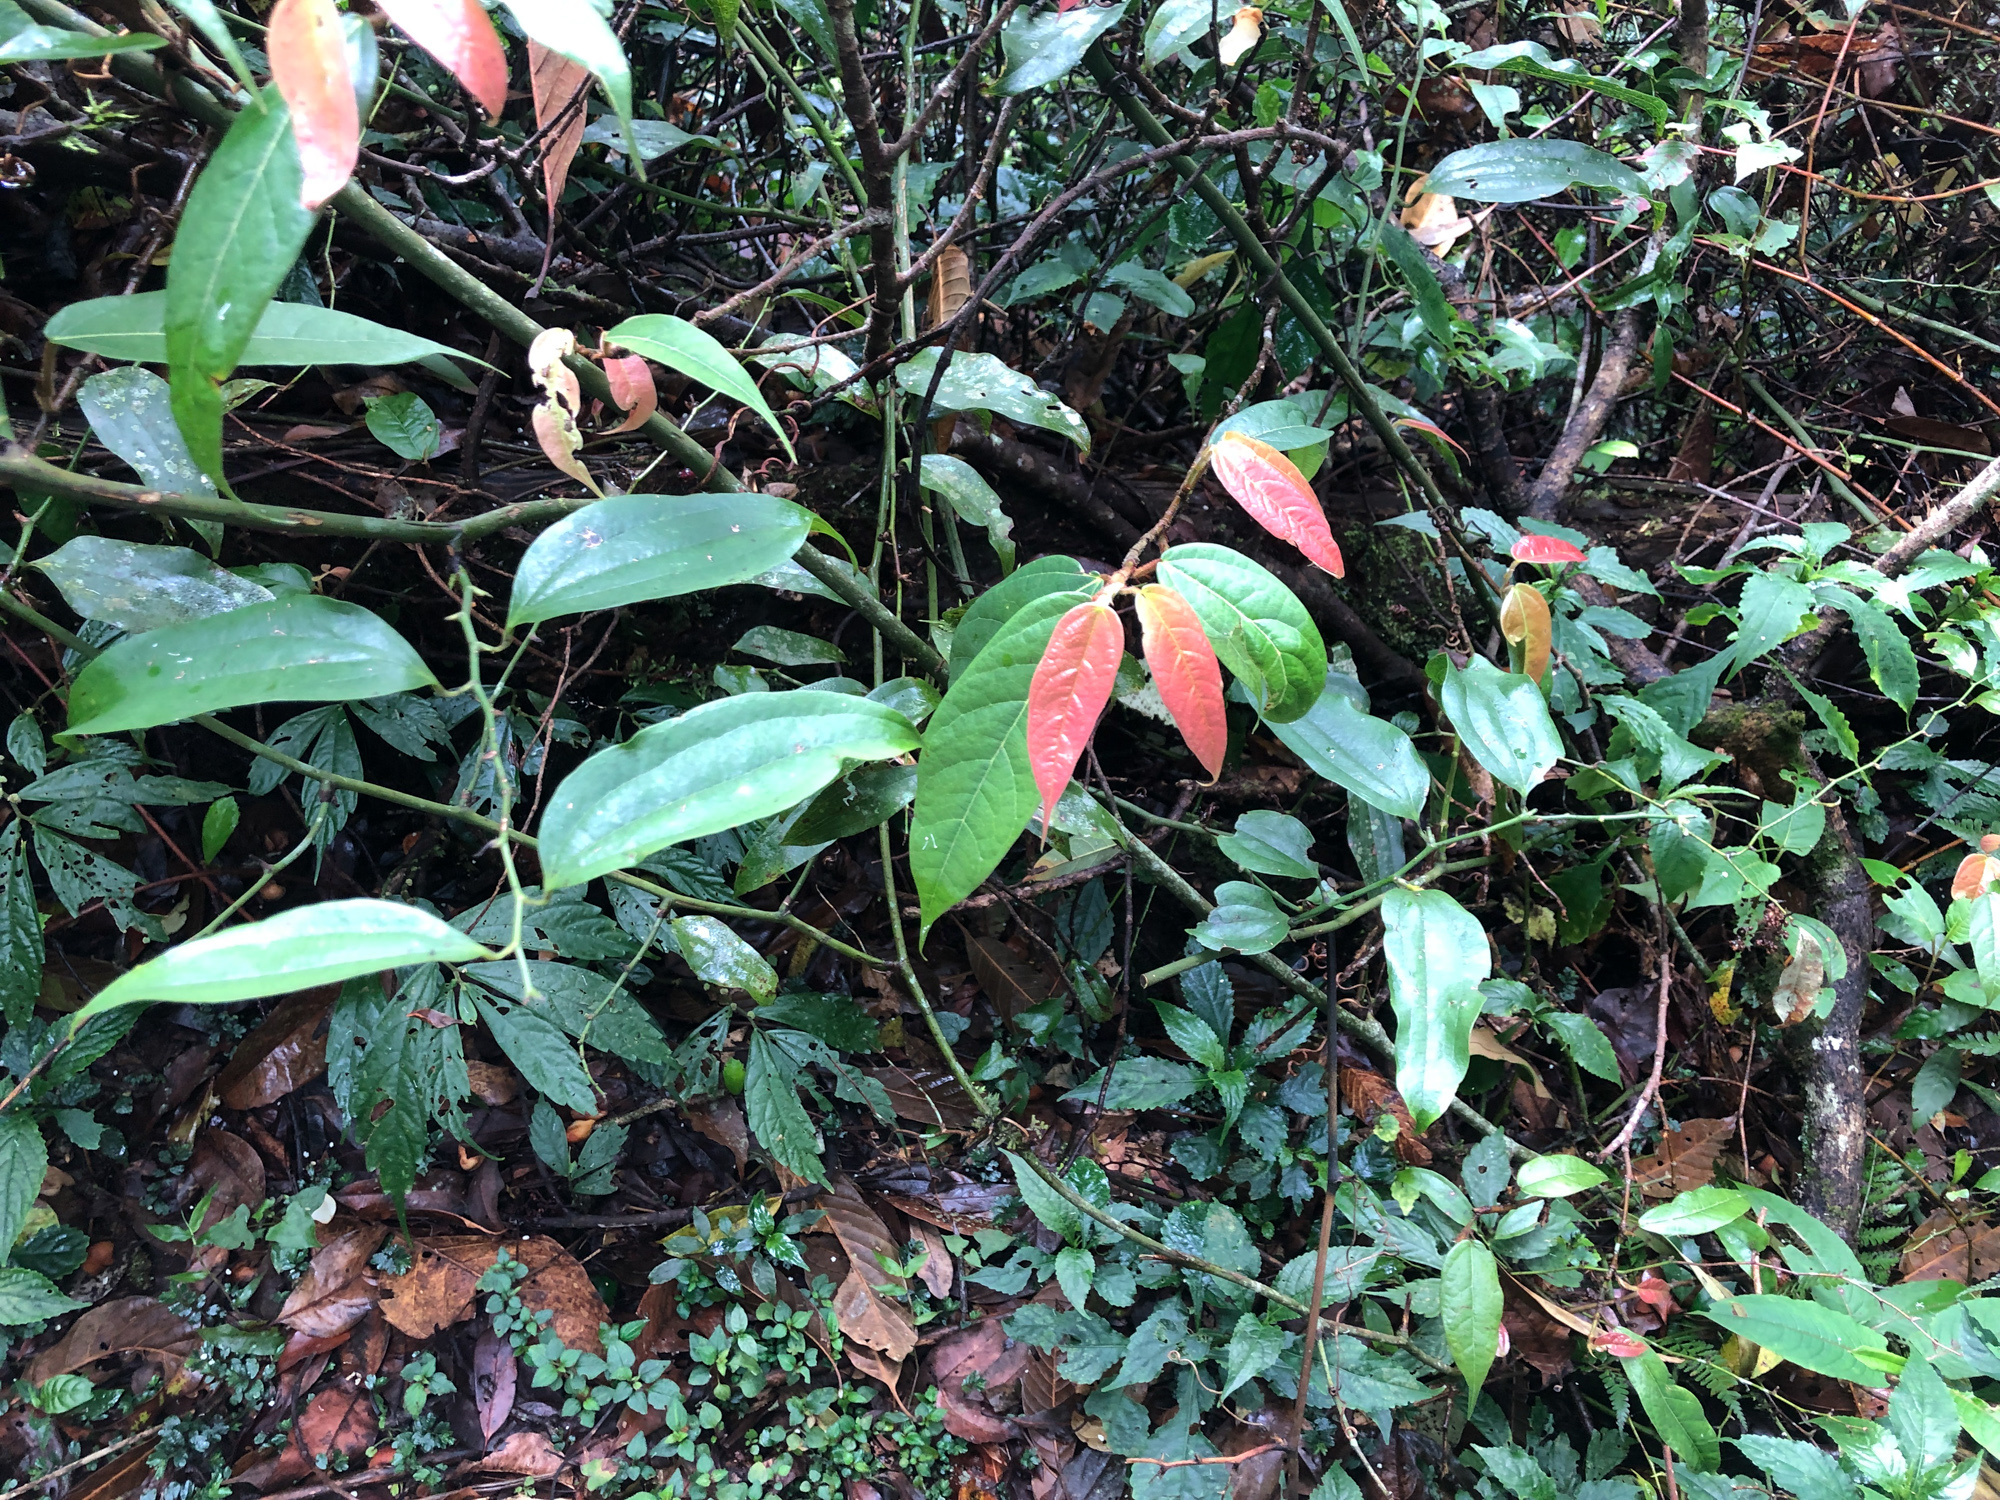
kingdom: Plantae
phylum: Tracheophyta
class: Magnoliopsida
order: Rosales
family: Moraceae
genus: Ficus
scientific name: Ficus pumila
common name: Climbingfig
